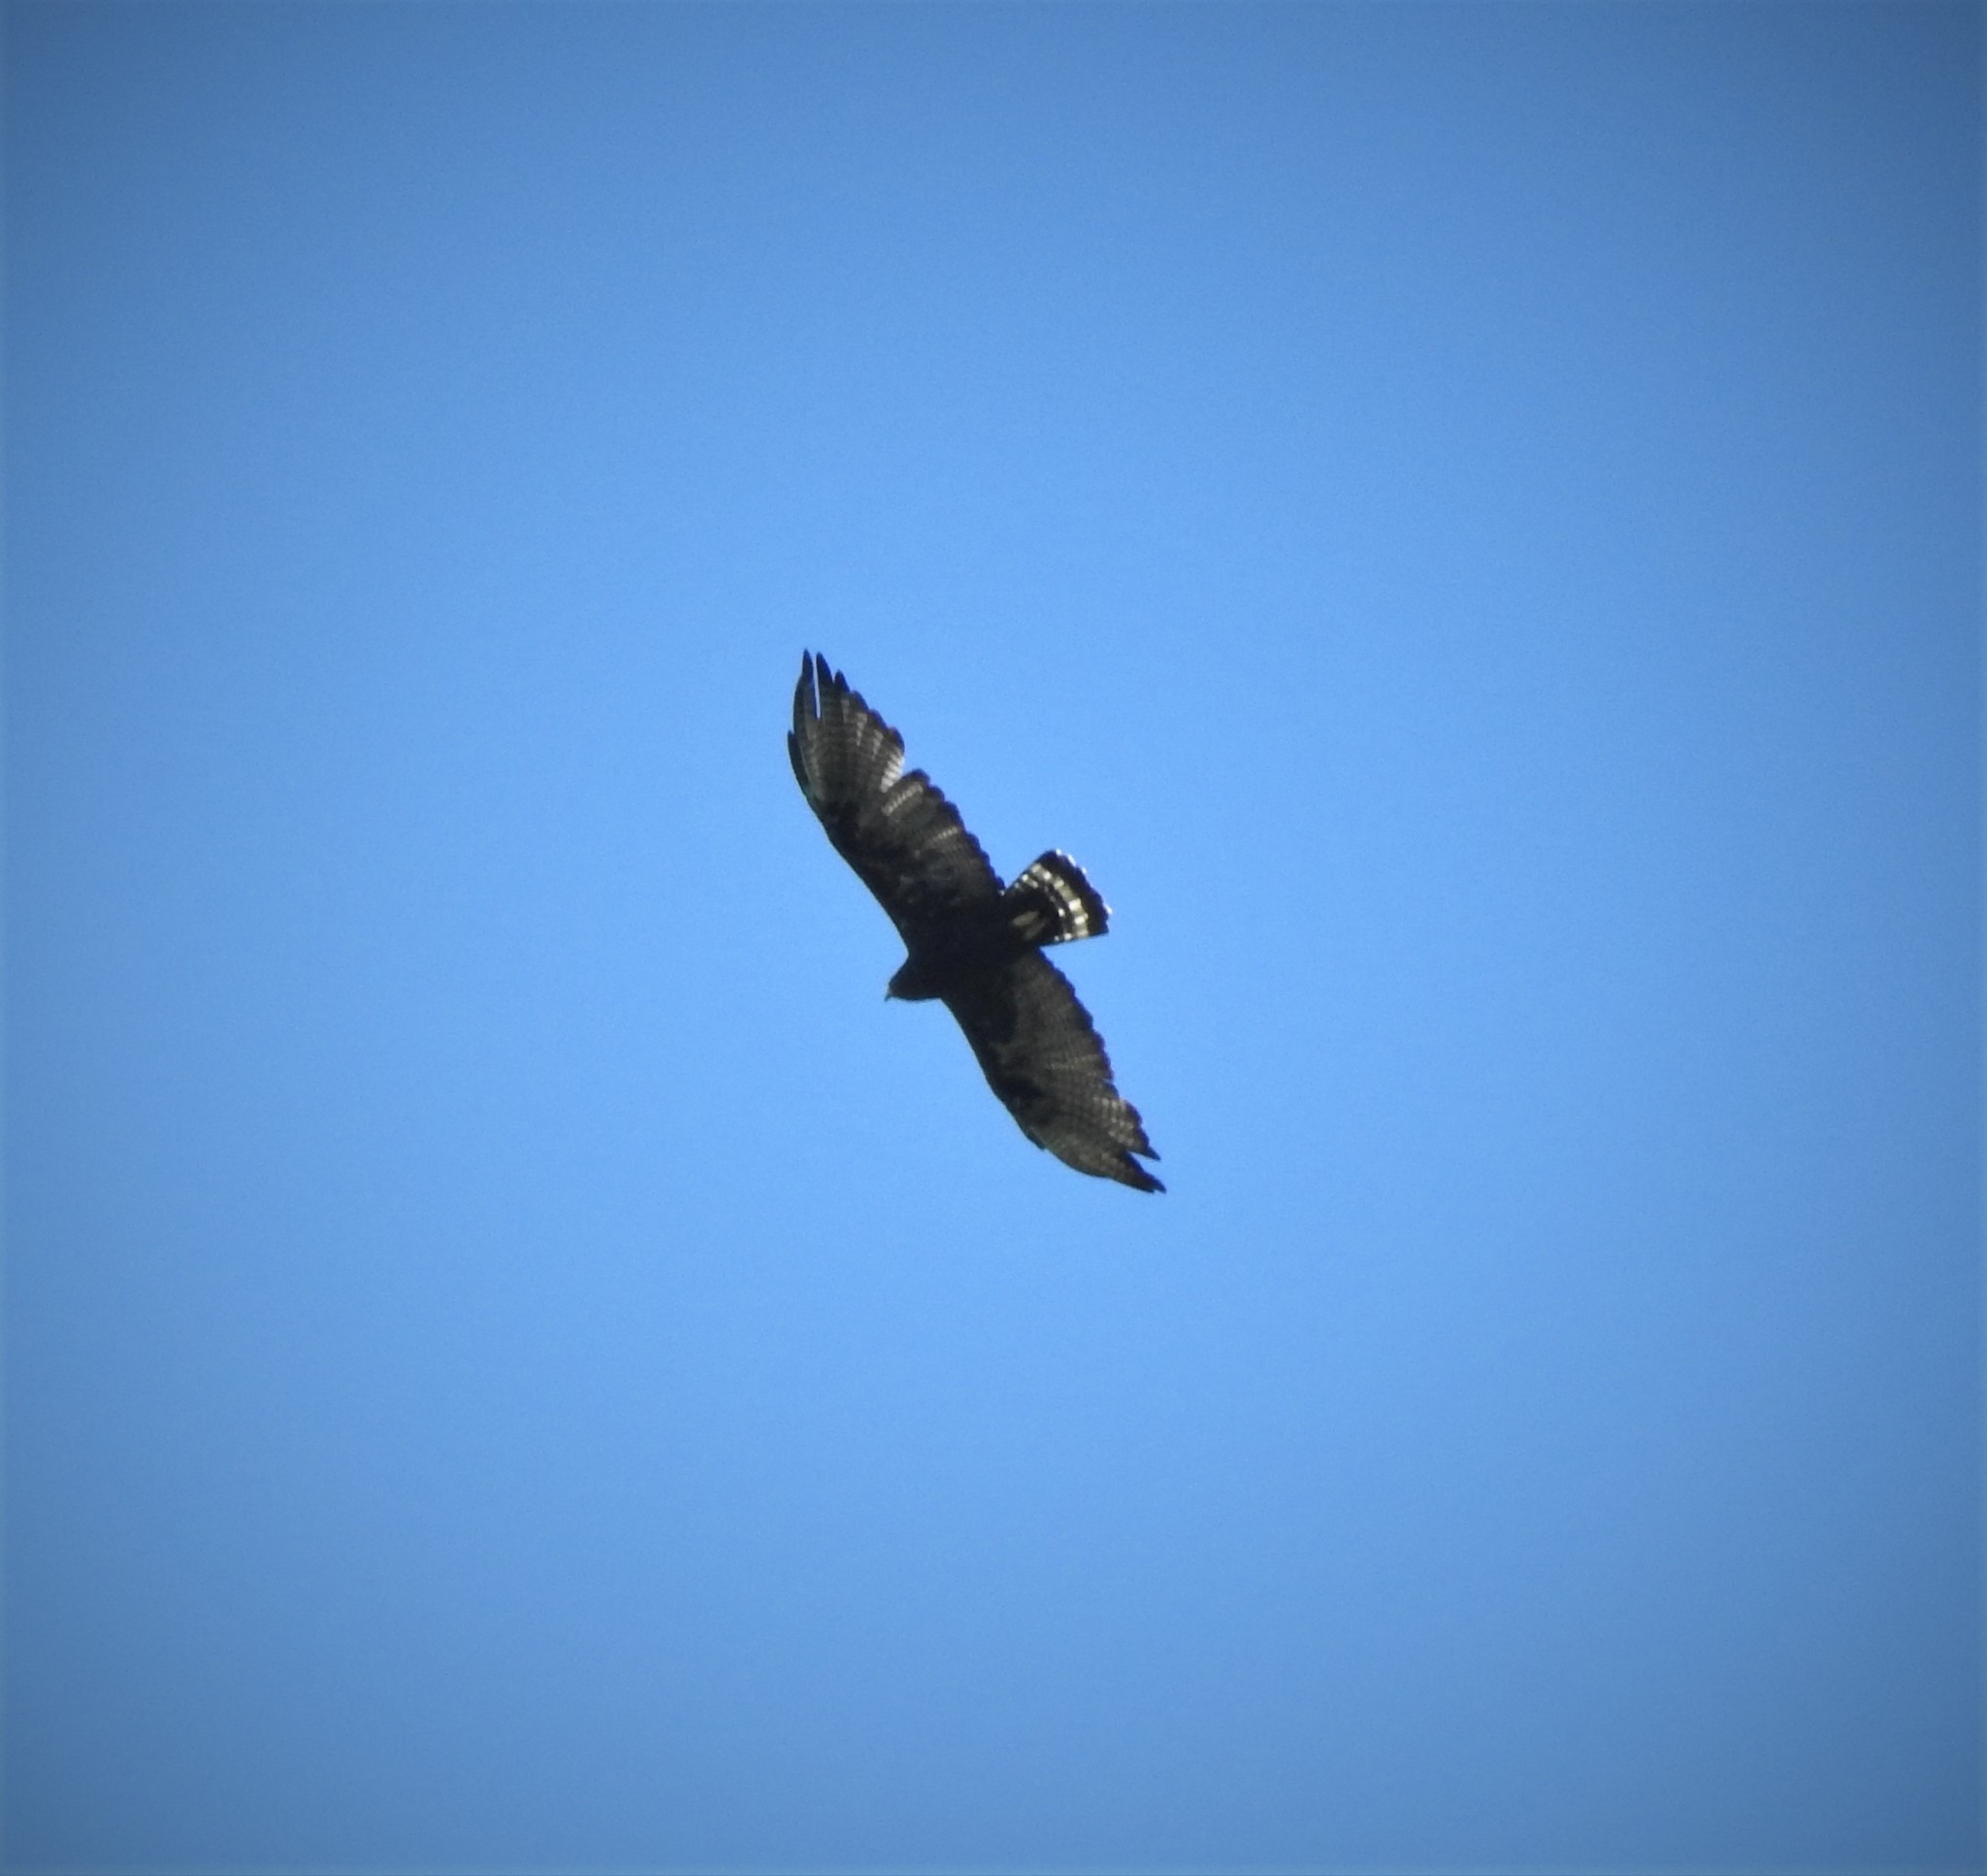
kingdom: Animalia
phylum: Chordata
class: Aves
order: Accipitriformes
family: Accipitridae
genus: Buteo
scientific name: Buteo albonotatus
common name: Zone-tailed hawk
